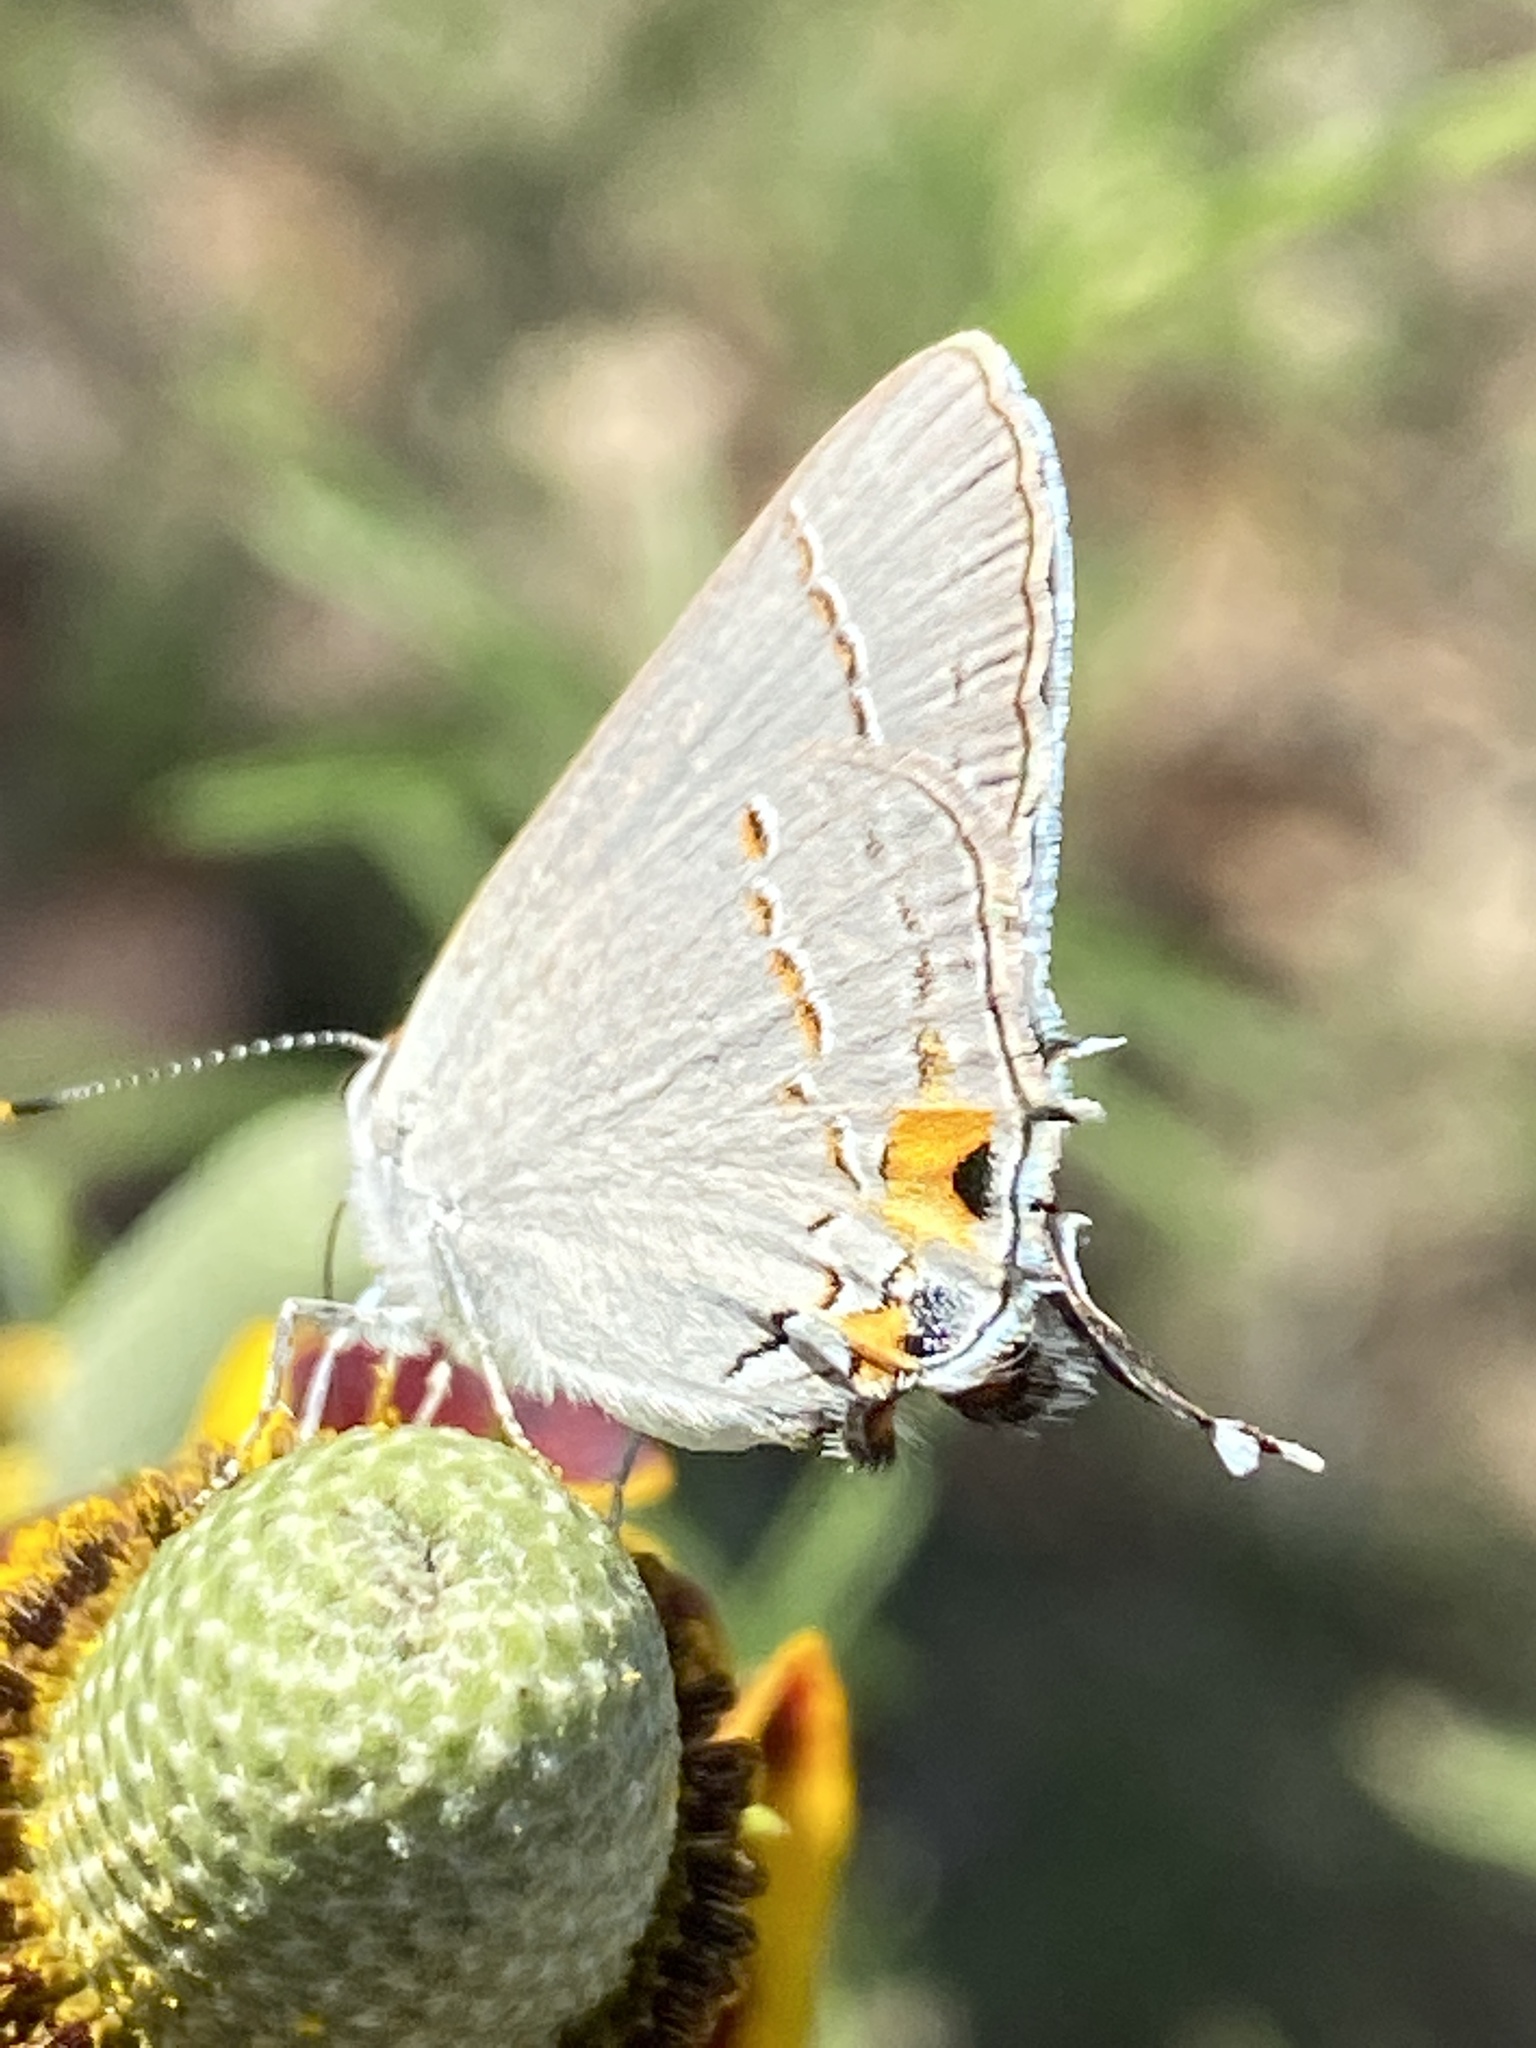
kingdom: Animalia
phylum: Arthropoda
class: Insecta
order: Lepidoptera
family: Lycaenidae
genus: Strymon
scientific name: Strymon melinus
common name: Gray hairstreak
